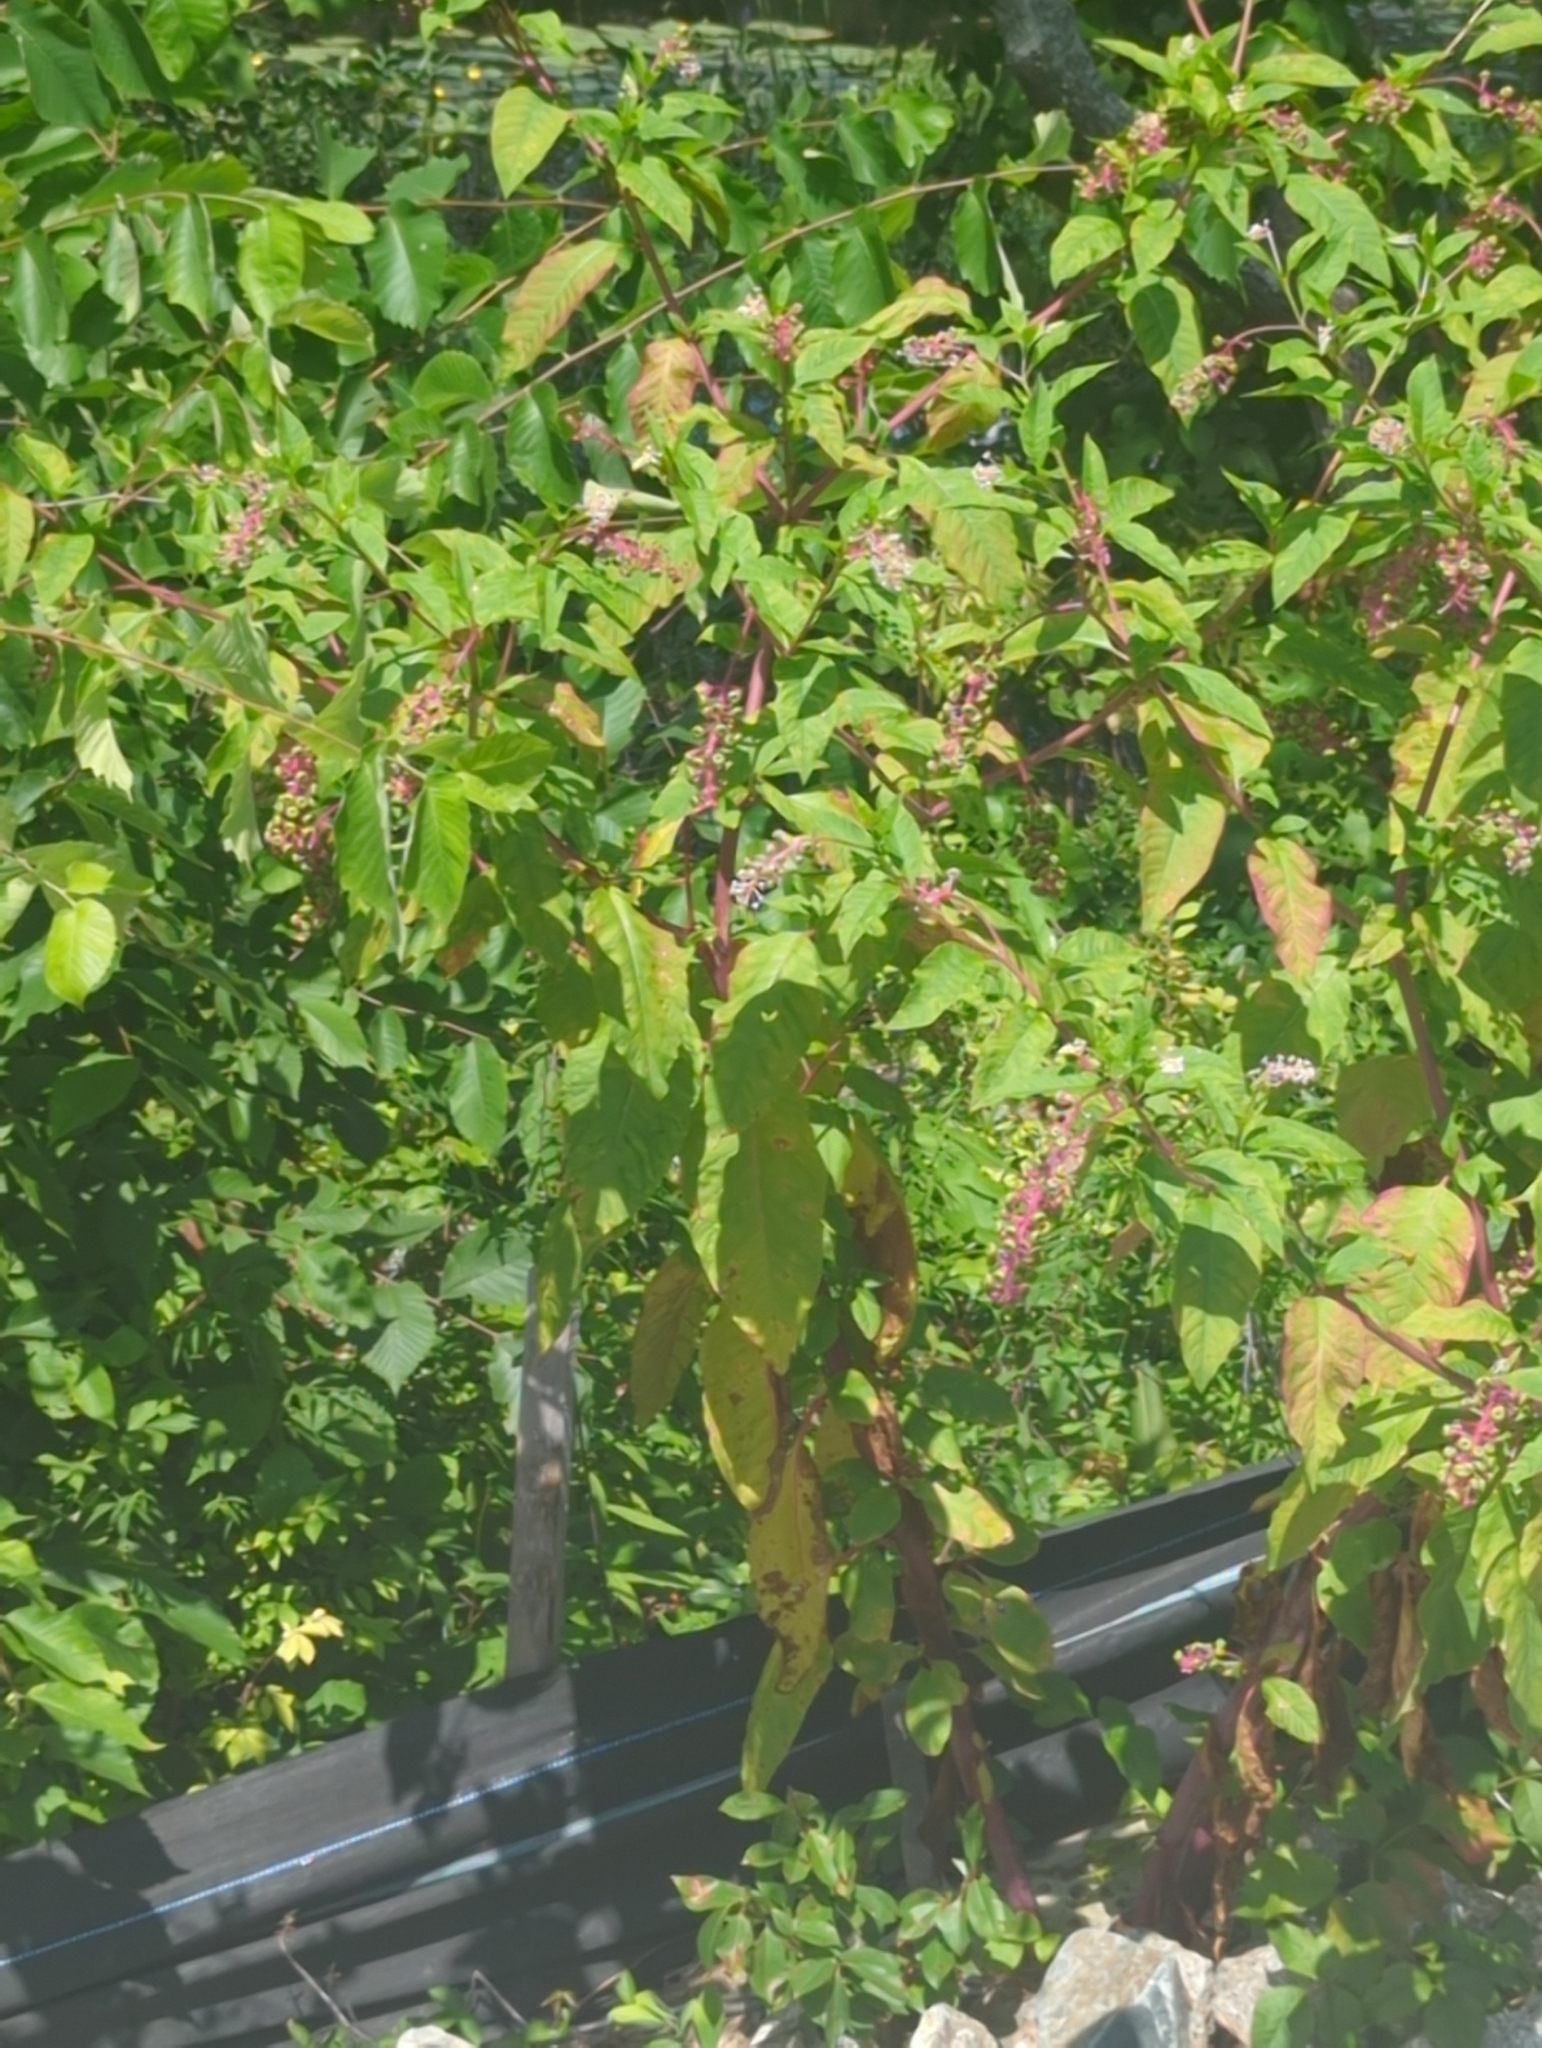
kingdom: Plantae
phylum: Tracheophyta
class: Magnoliopsida
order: Caryophyllales
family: Phytolaccaceae
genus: Phytolacca
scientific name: Phytolacca americana
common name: American pokeweed
